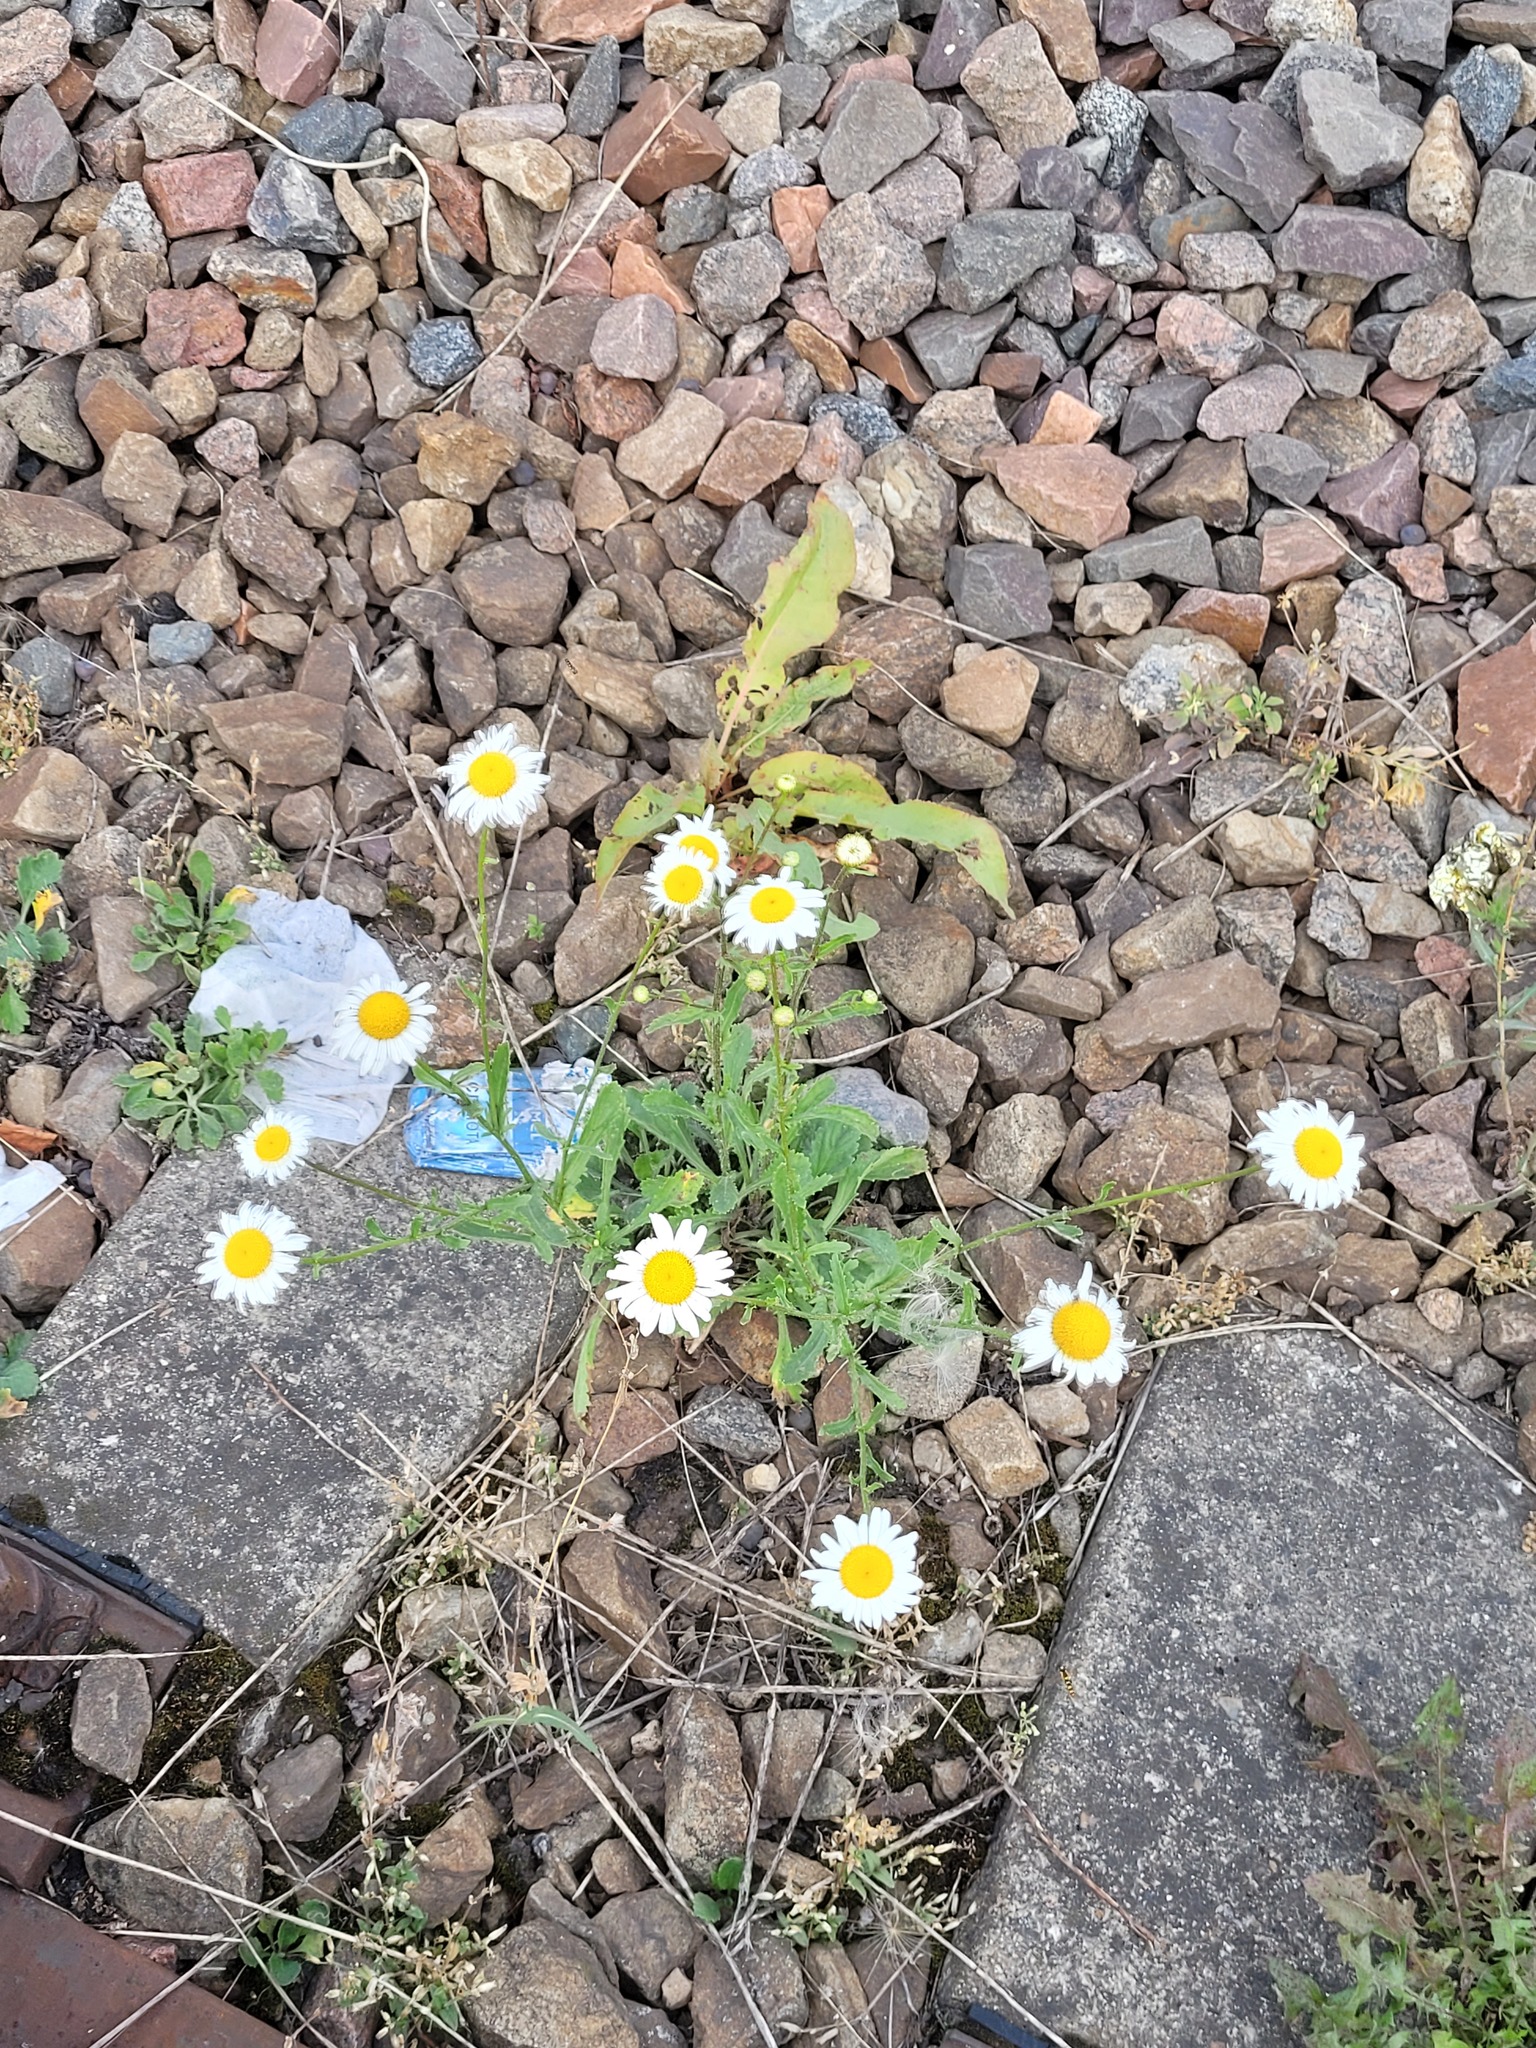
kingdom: Plantae
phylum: Tracheophyta
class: Magnoliopsida
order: Asterales
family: Asteraceae
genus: Leucanthemum
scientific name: Leucanthemum vulgare
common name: Oxeye daisy
